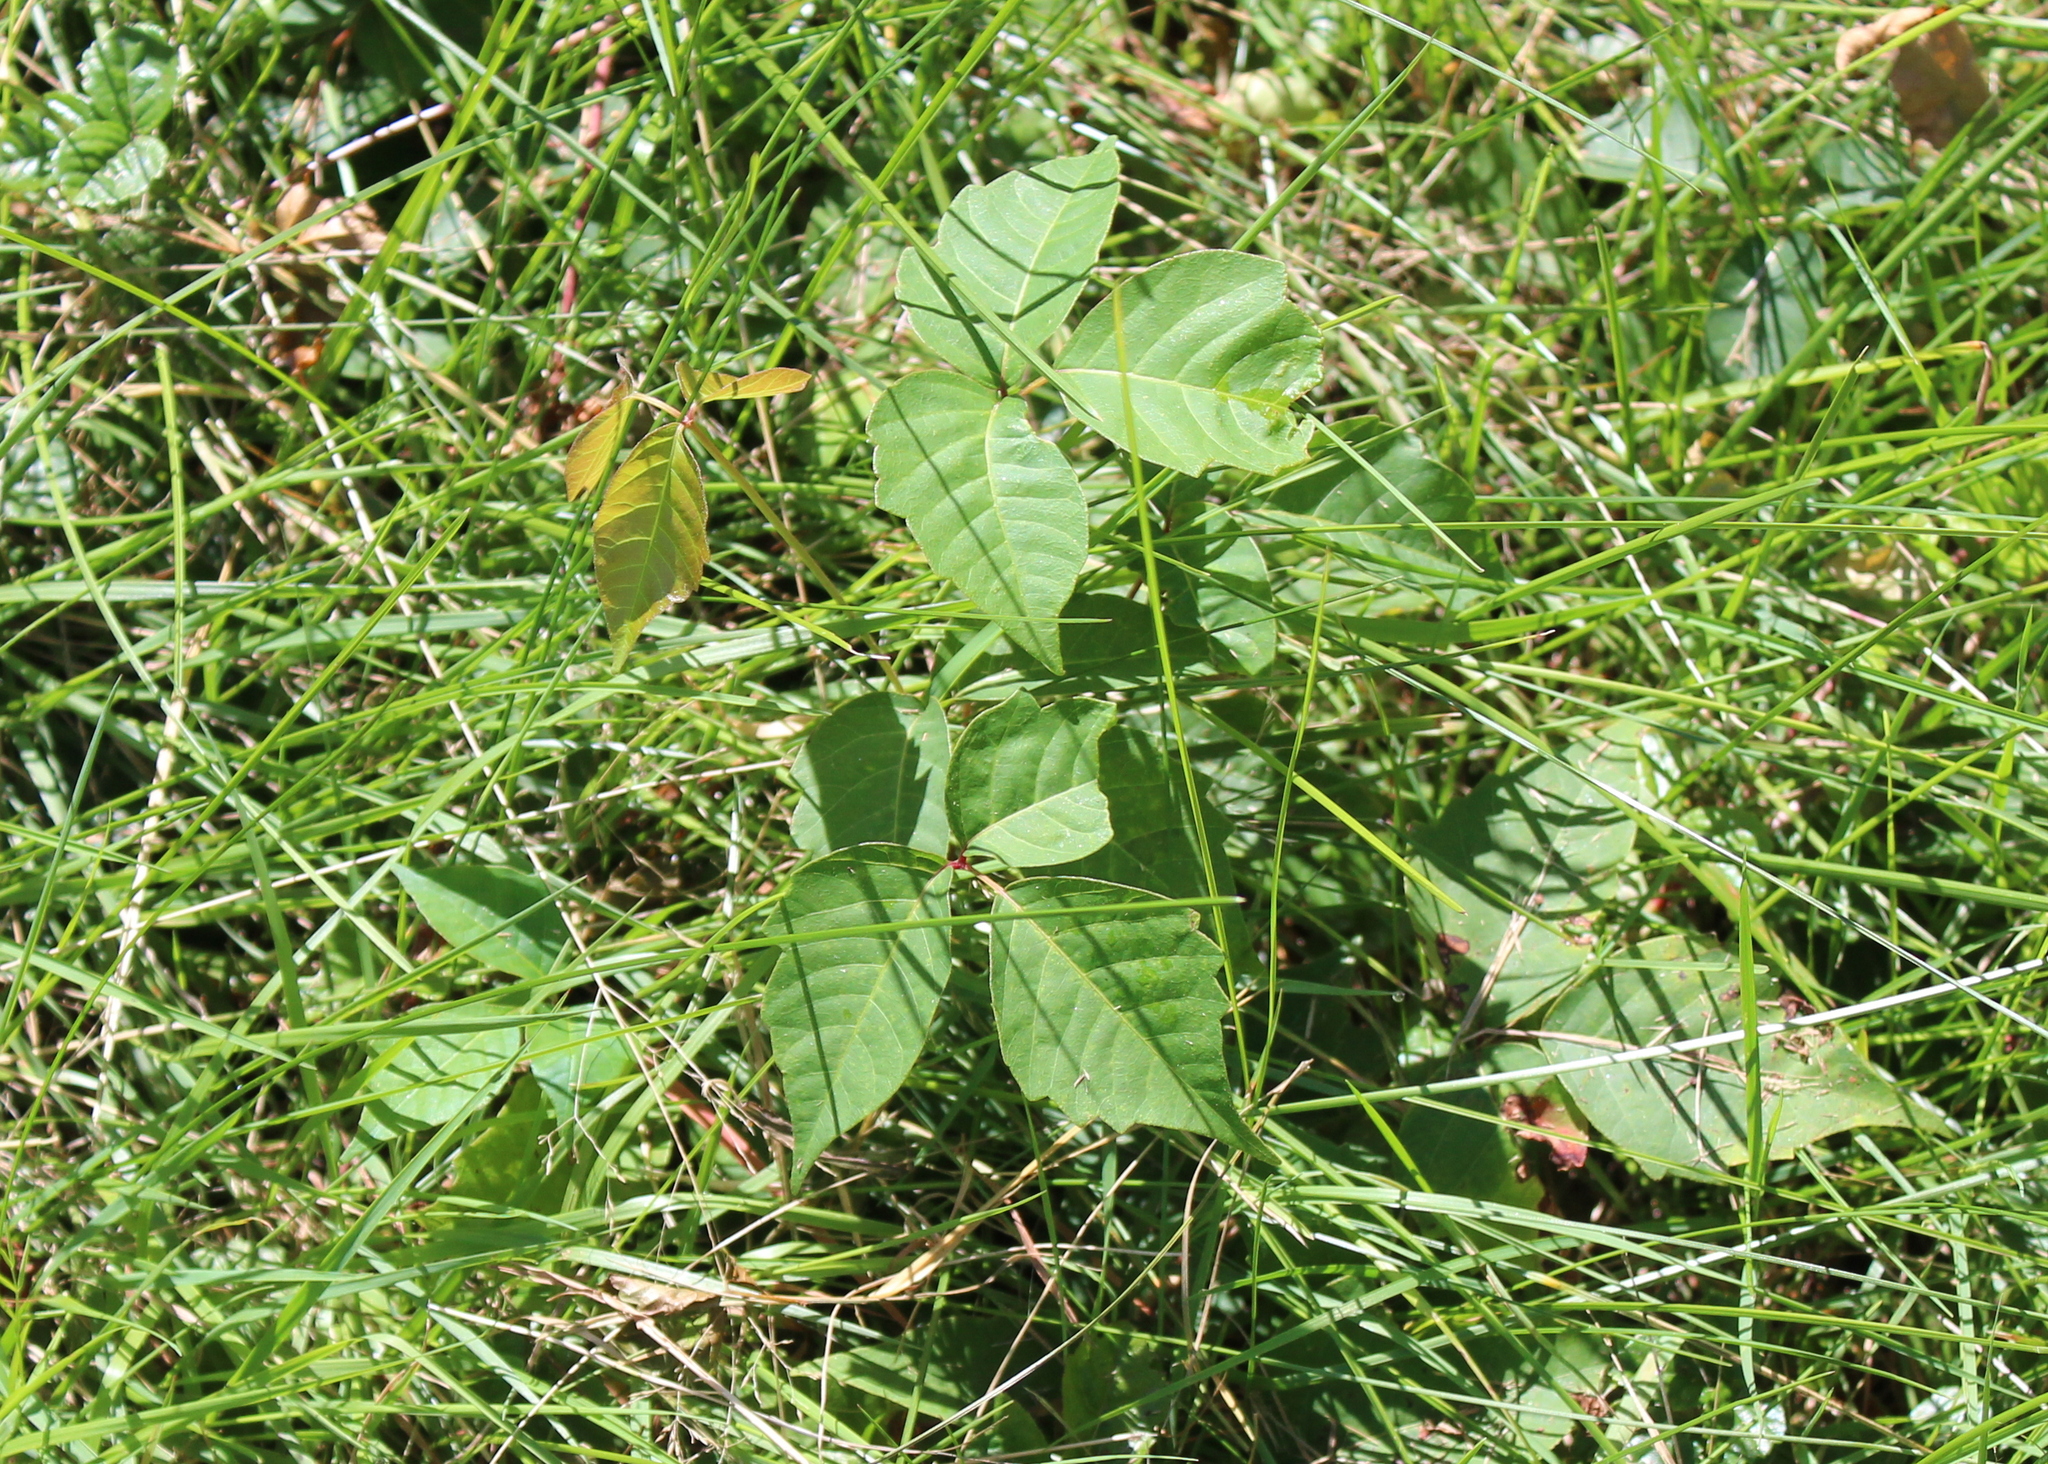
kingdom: Plantae
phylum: Tracheophyta
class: Magnoliopsida
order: Sapindales
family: Anacardiaceae
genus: Toxicodendron
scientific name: Toxicodendron radicans
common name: Poison ivy
